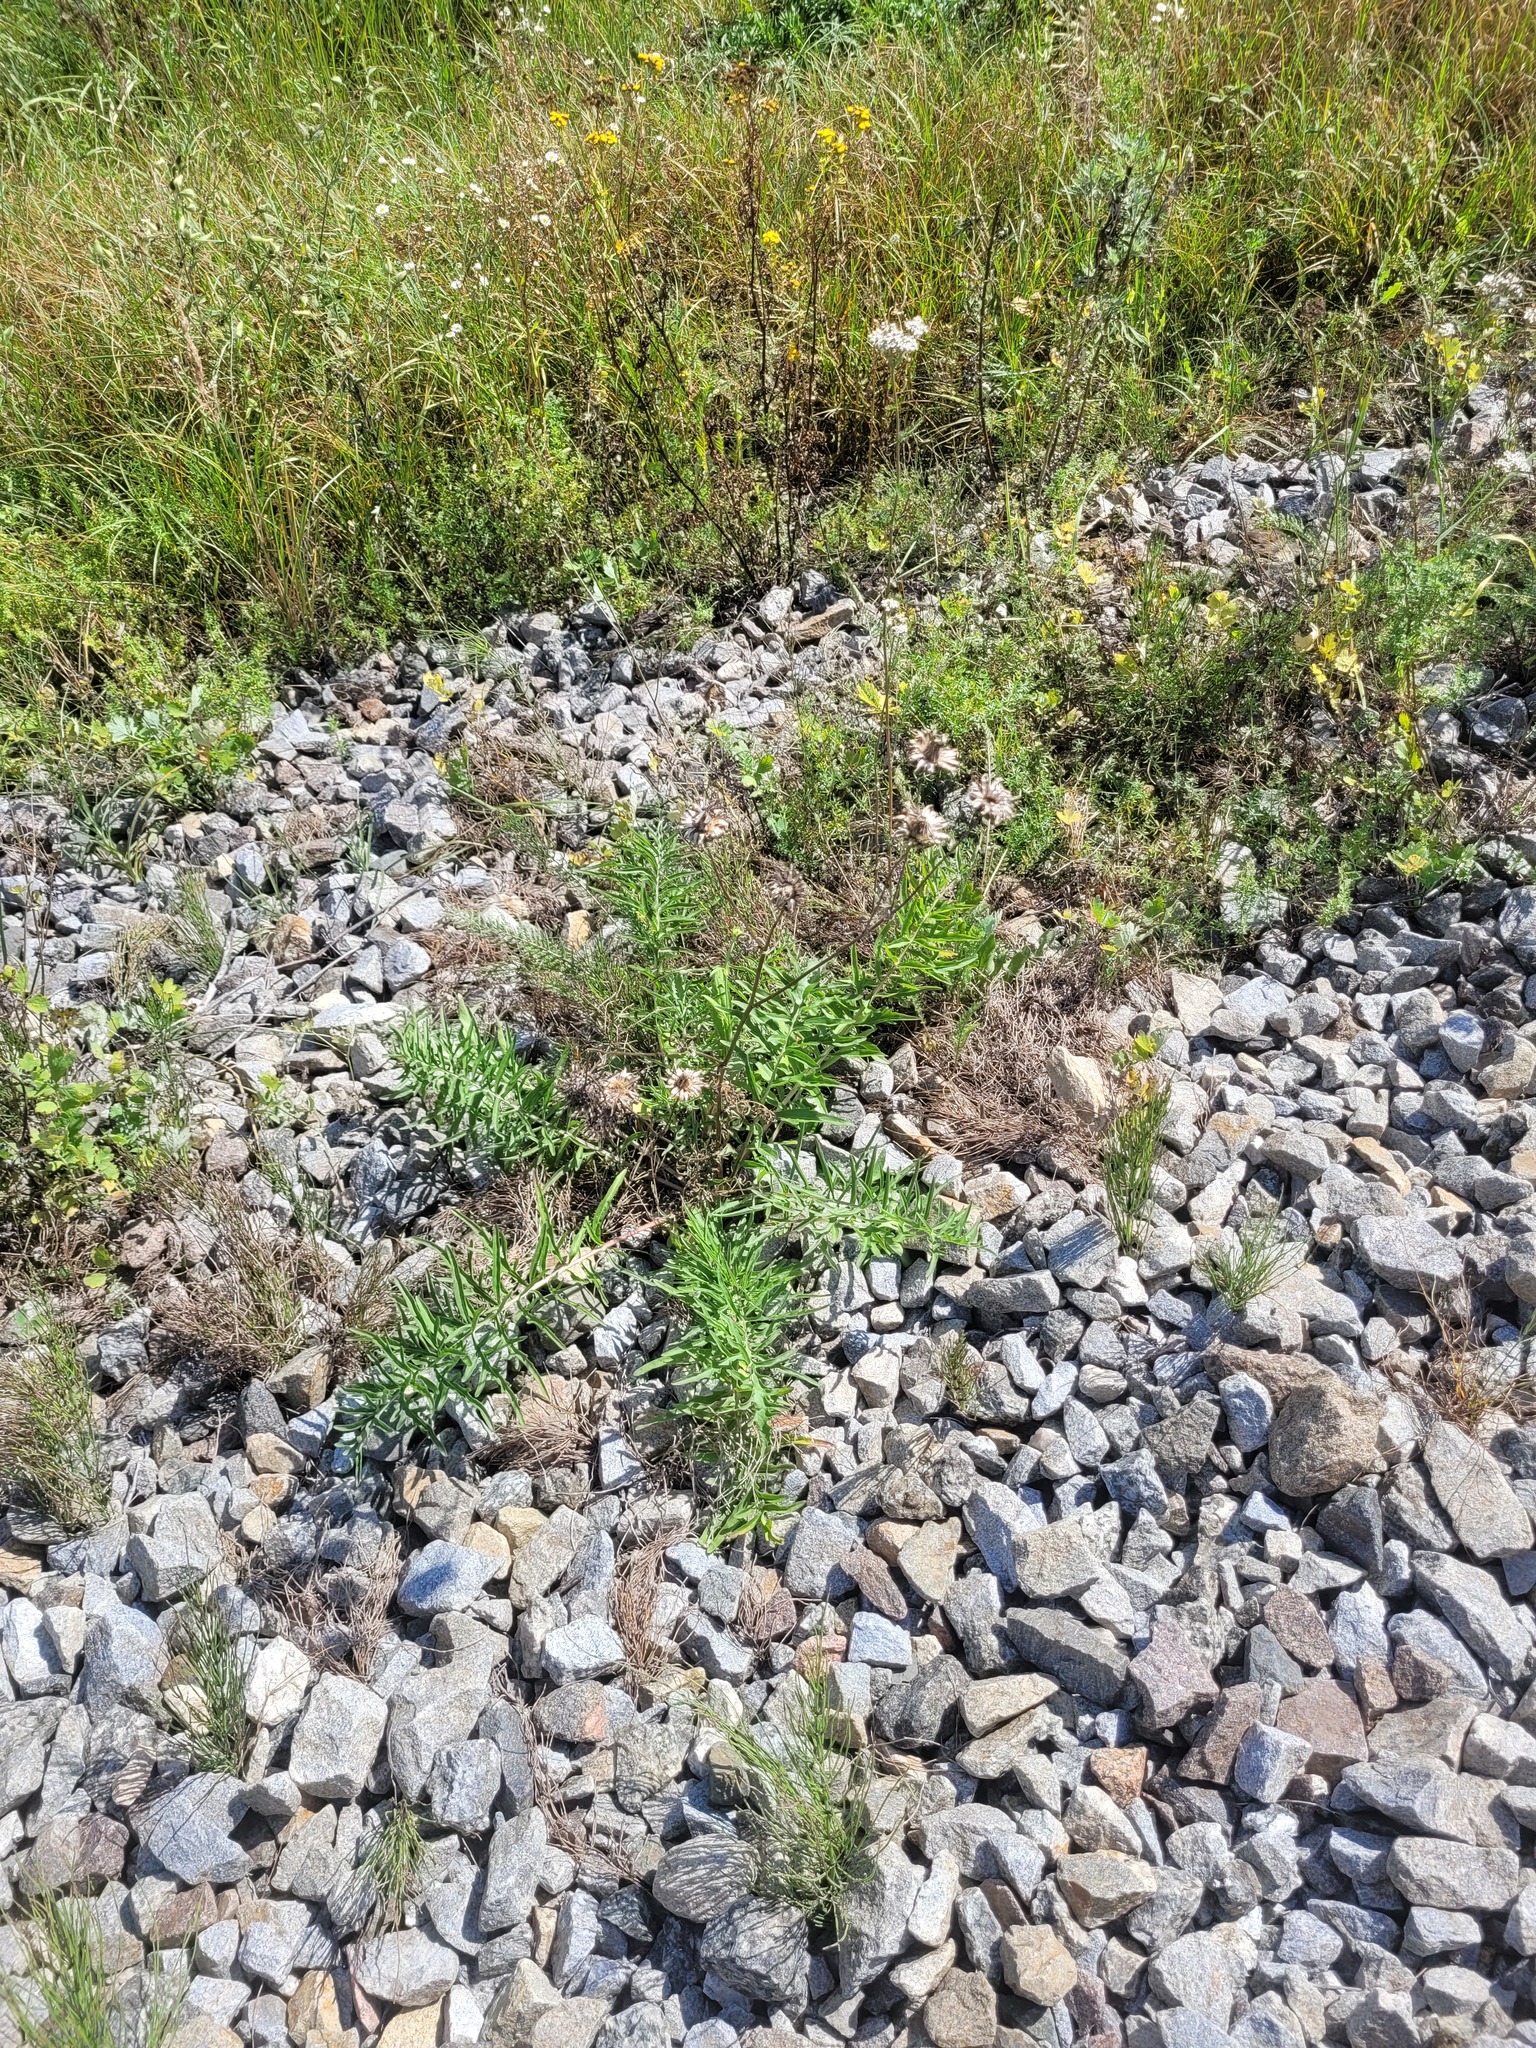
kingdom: Plantae
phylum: Tracheophyta
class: Magnoliopsida
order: Asterales
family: Asteraceae
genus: Centaurea
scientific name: Centaurea scabiosa
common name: Greater knapweed
